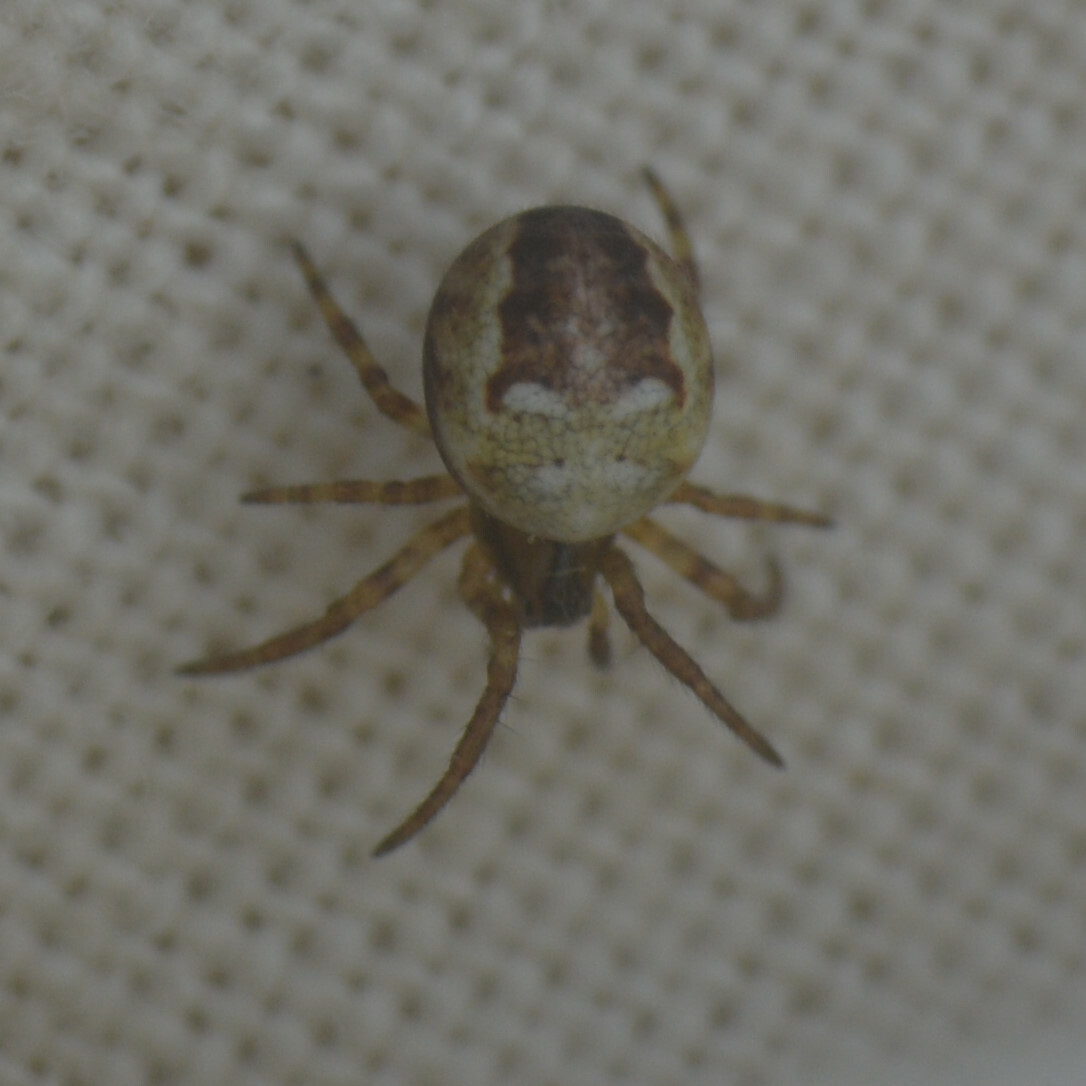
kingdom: Animalia
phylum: Arthropoda
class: Arachnida
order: Araneae
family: Araneidae
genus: Araneus
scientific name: Araneus quadratus
